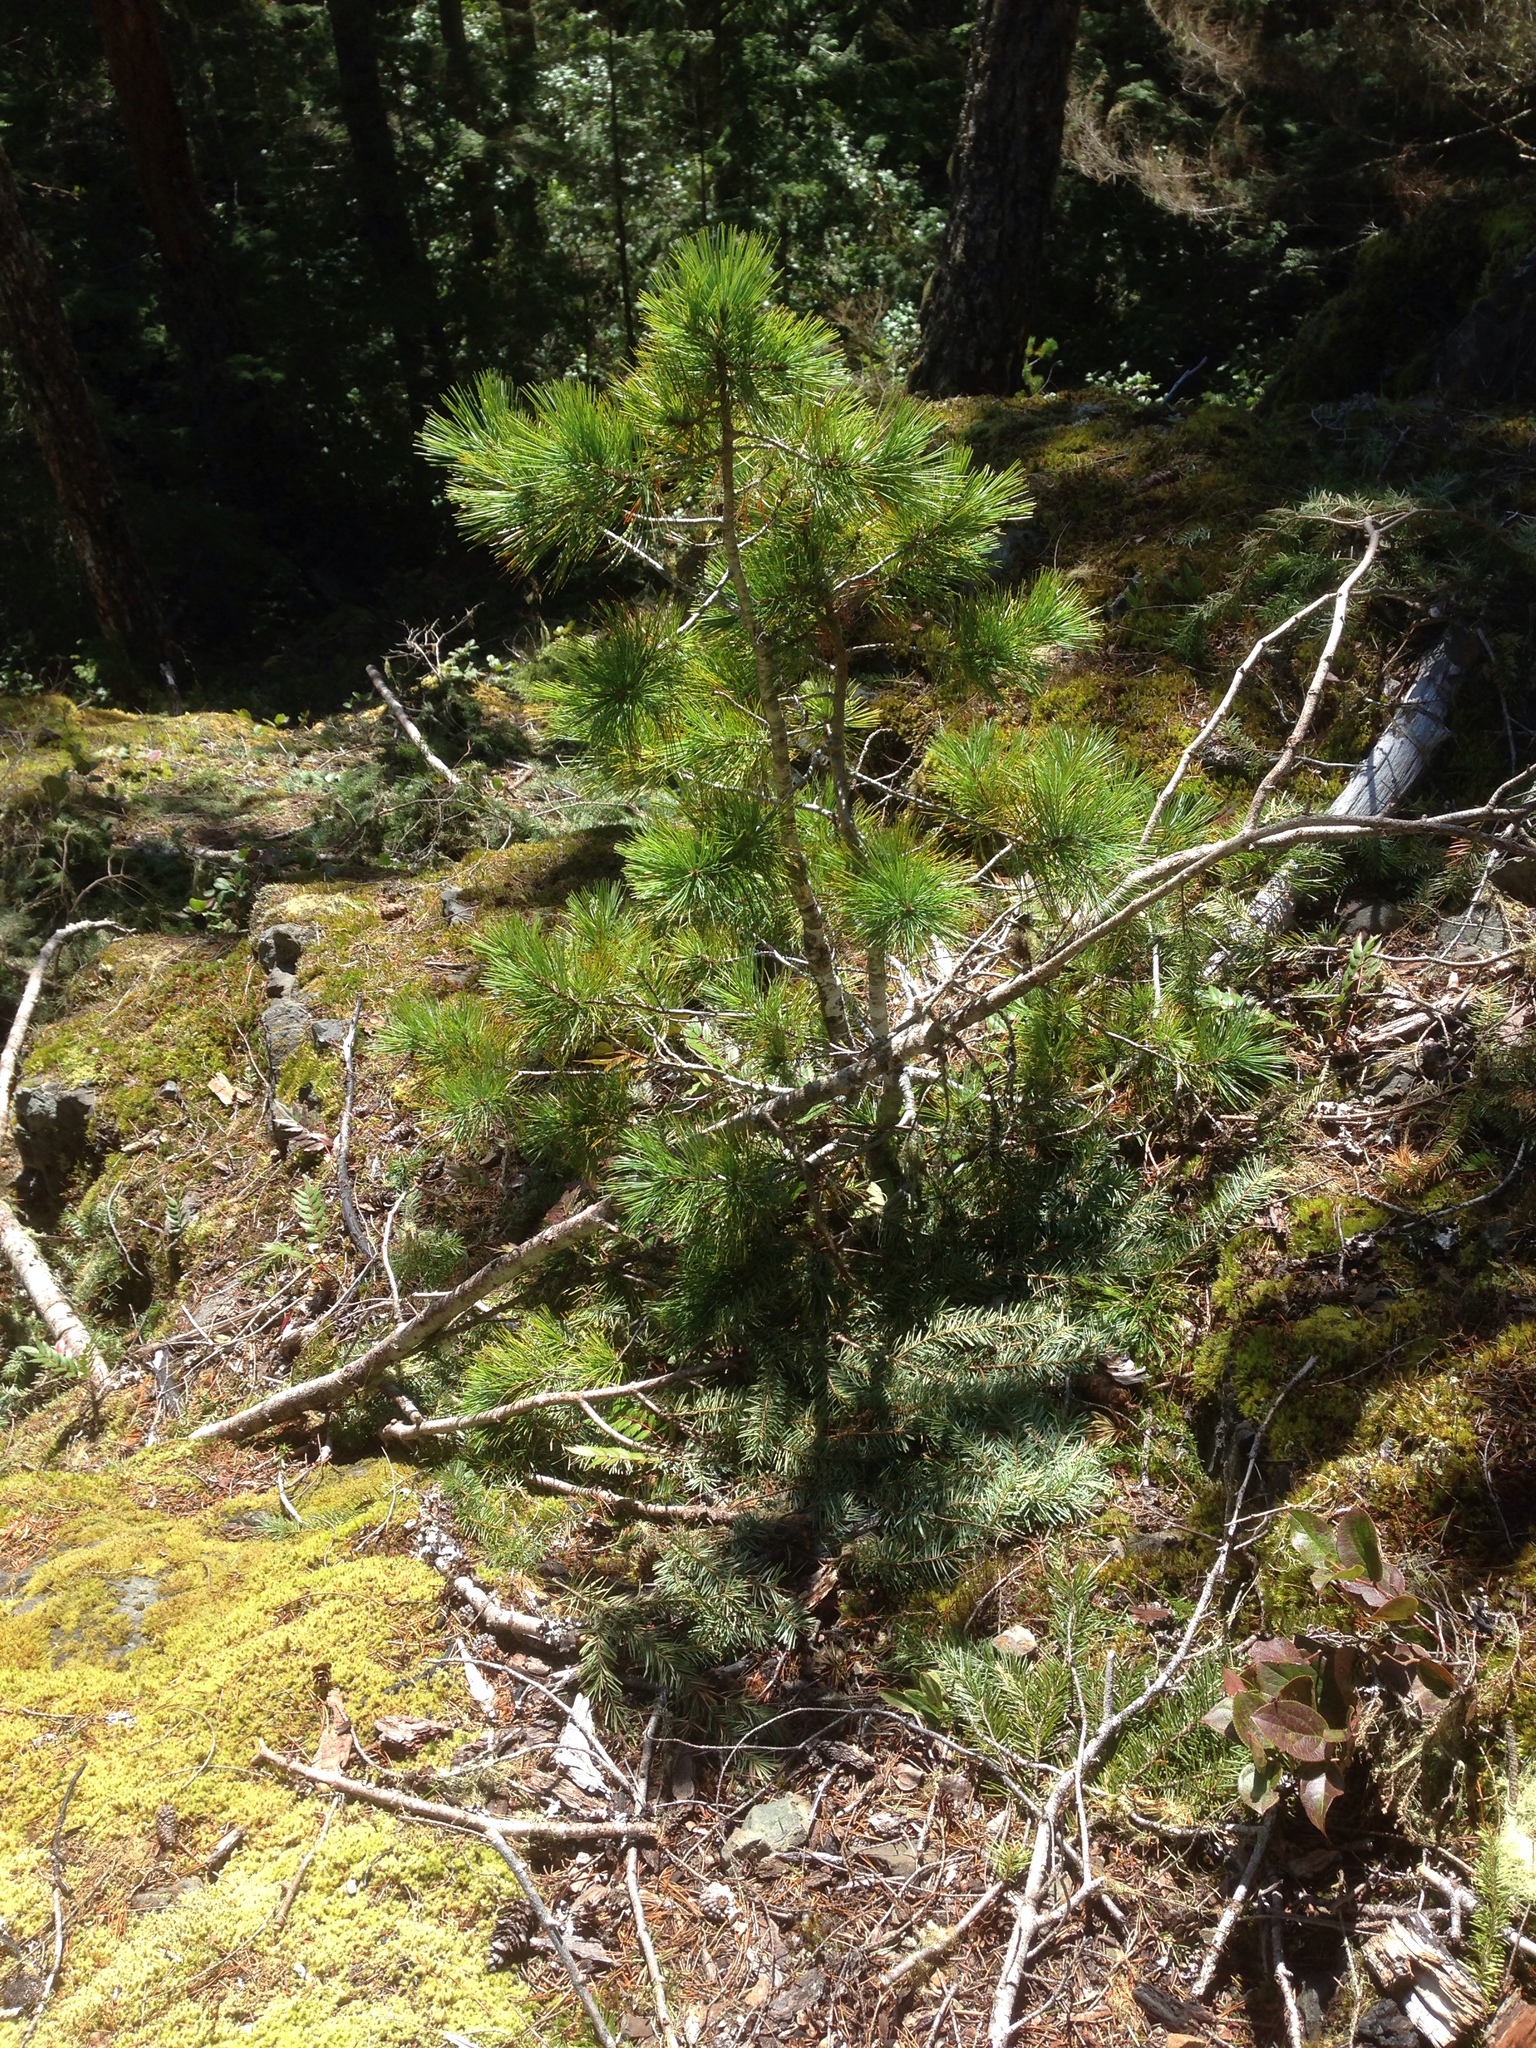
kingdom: Plantae
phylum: Tracheophyta
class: Pinopsida
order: Pinales
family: Pinaceae
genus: Pinus
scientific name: Pinus monticola
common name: Western white pine
